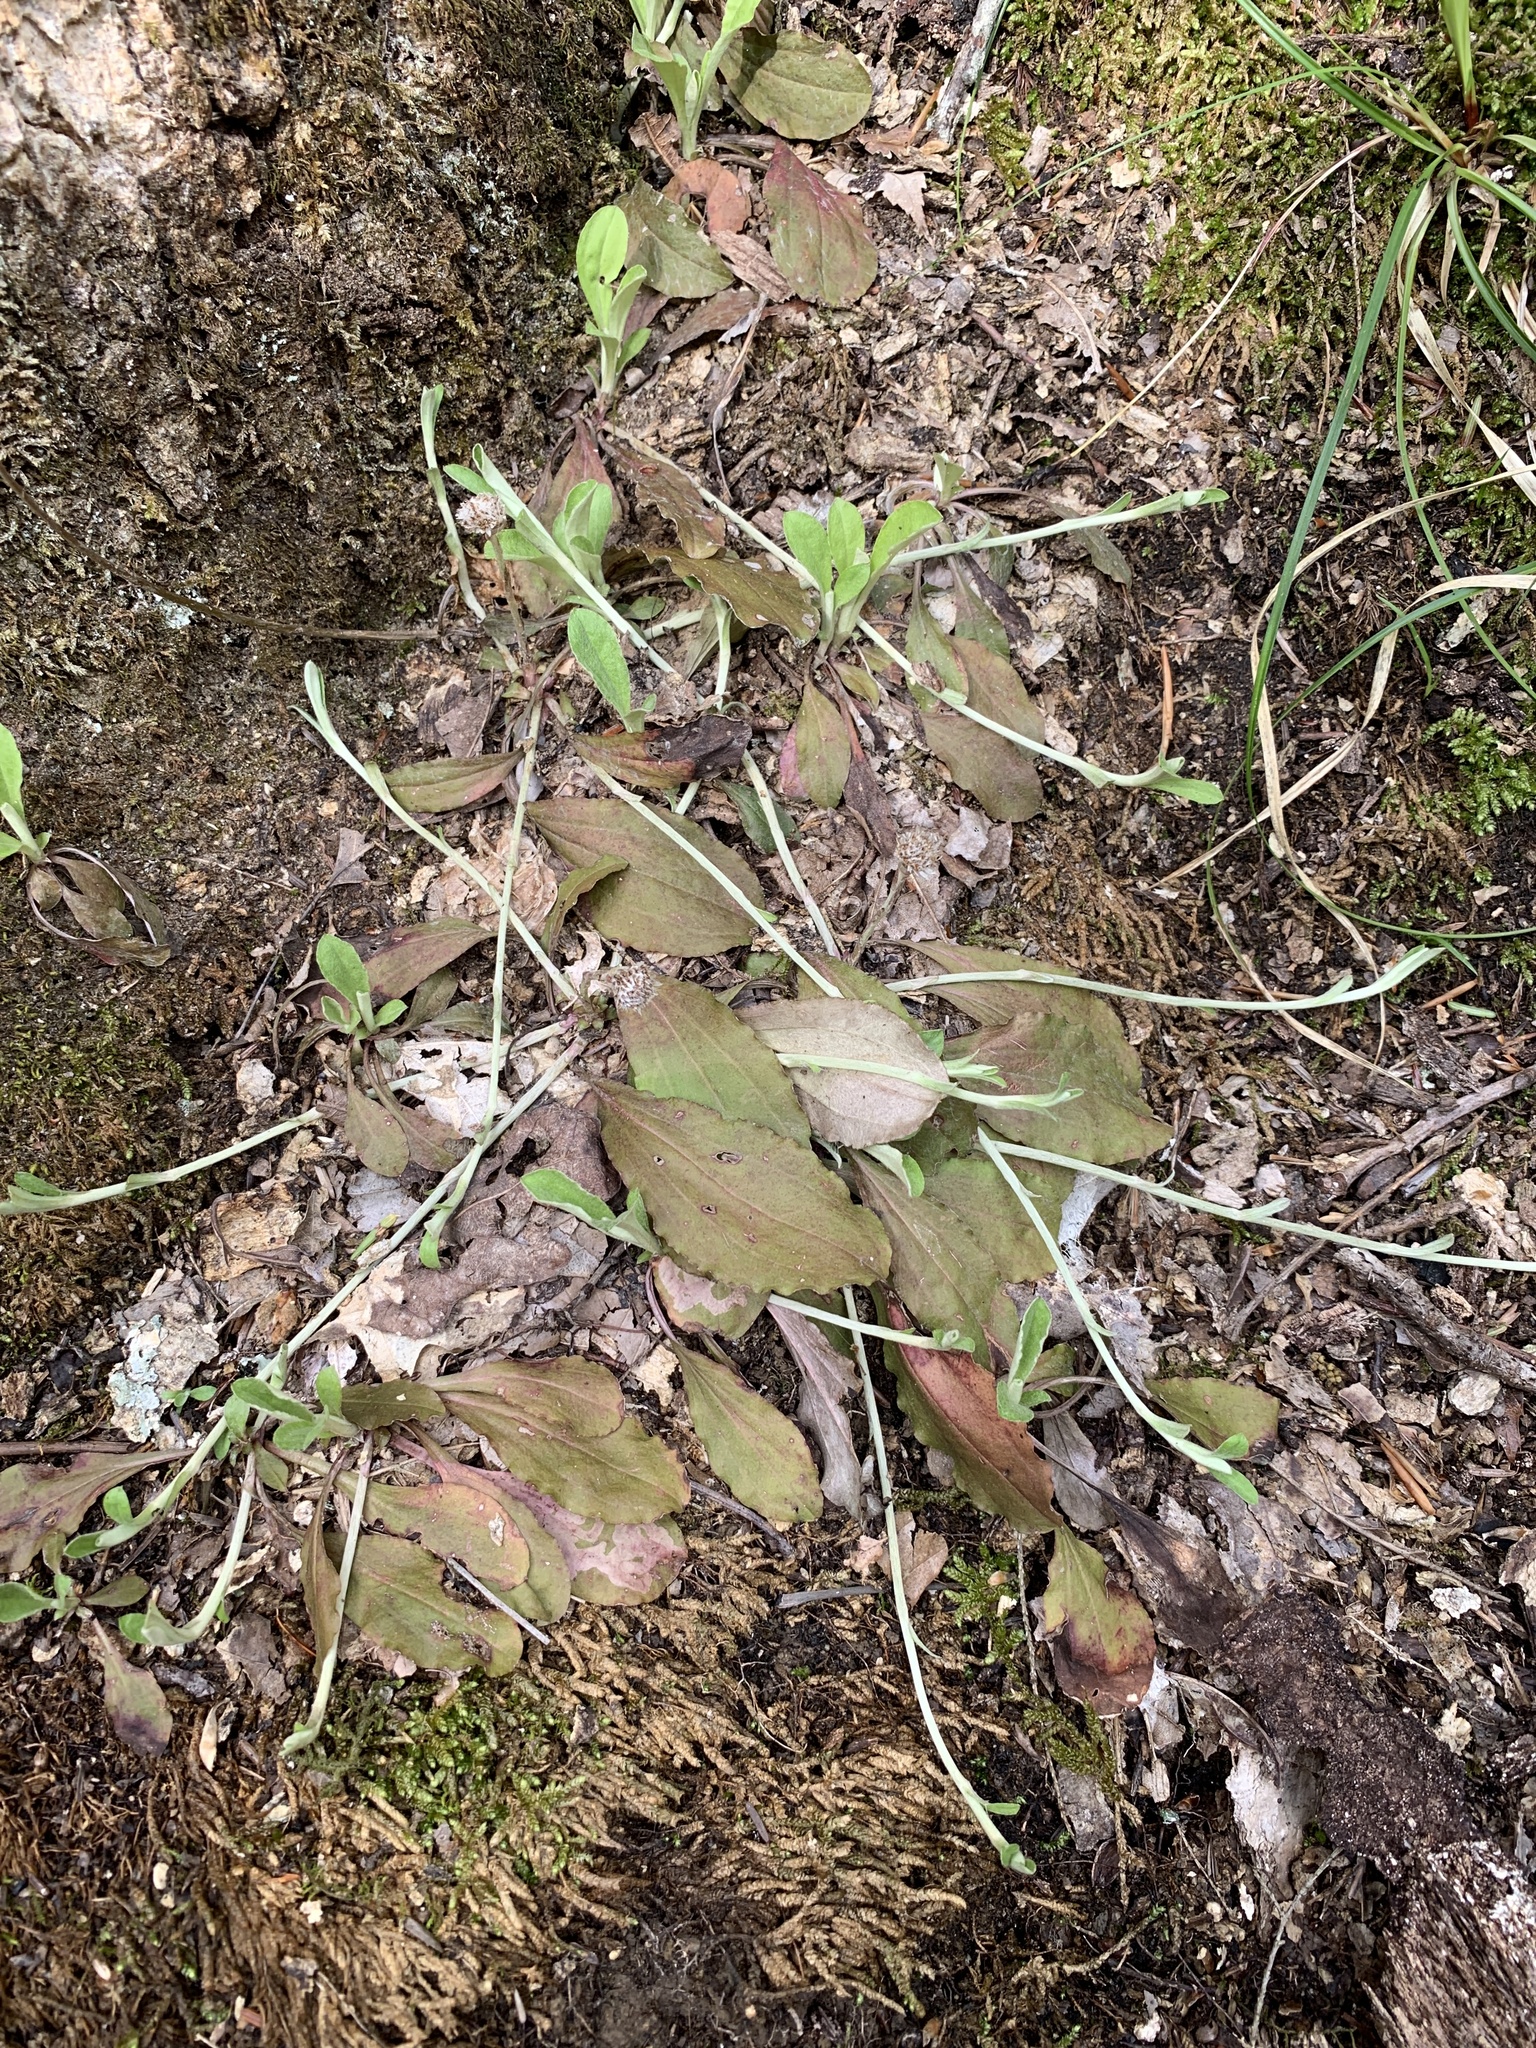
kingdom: Plantae
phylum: Tracheophyta
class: Magnoliopsida
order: Asterales
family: Asteraceae
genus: Antennaria
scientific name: Antennaria solitaria
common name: Single-head pussytoes
